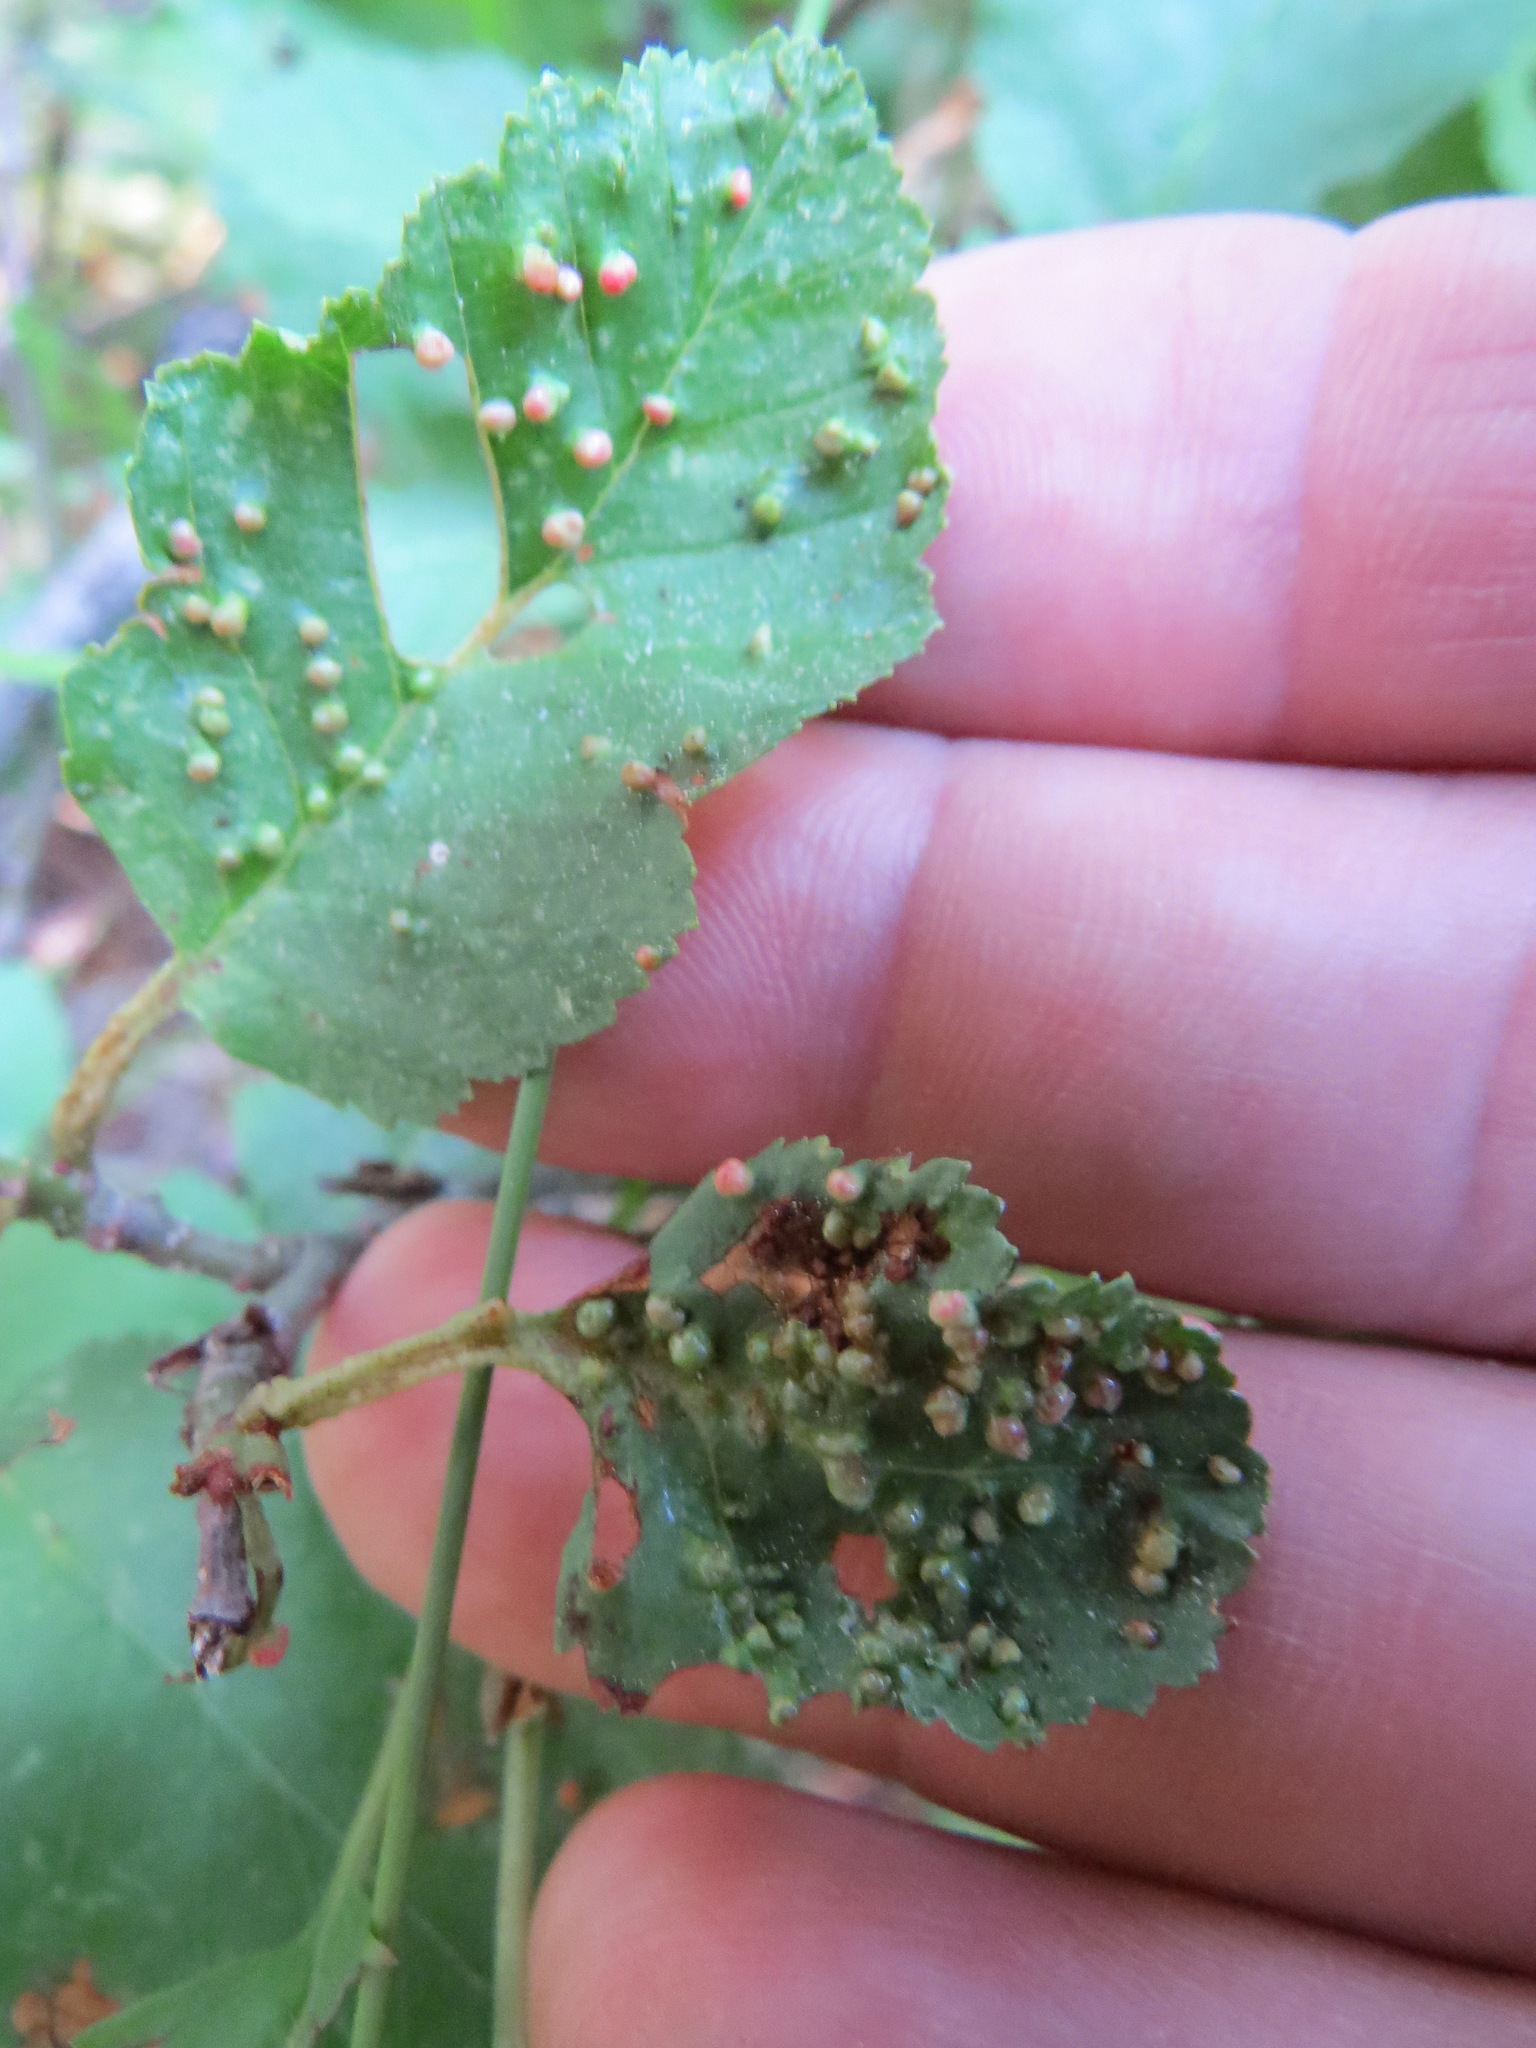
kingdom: Animalia
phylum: Arthropoda
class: Arachnida
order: Trombidiformes
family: Eriophyidae
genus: Eriophyes
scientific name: Eriophyes laevis
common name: Alder leaf gall mite
